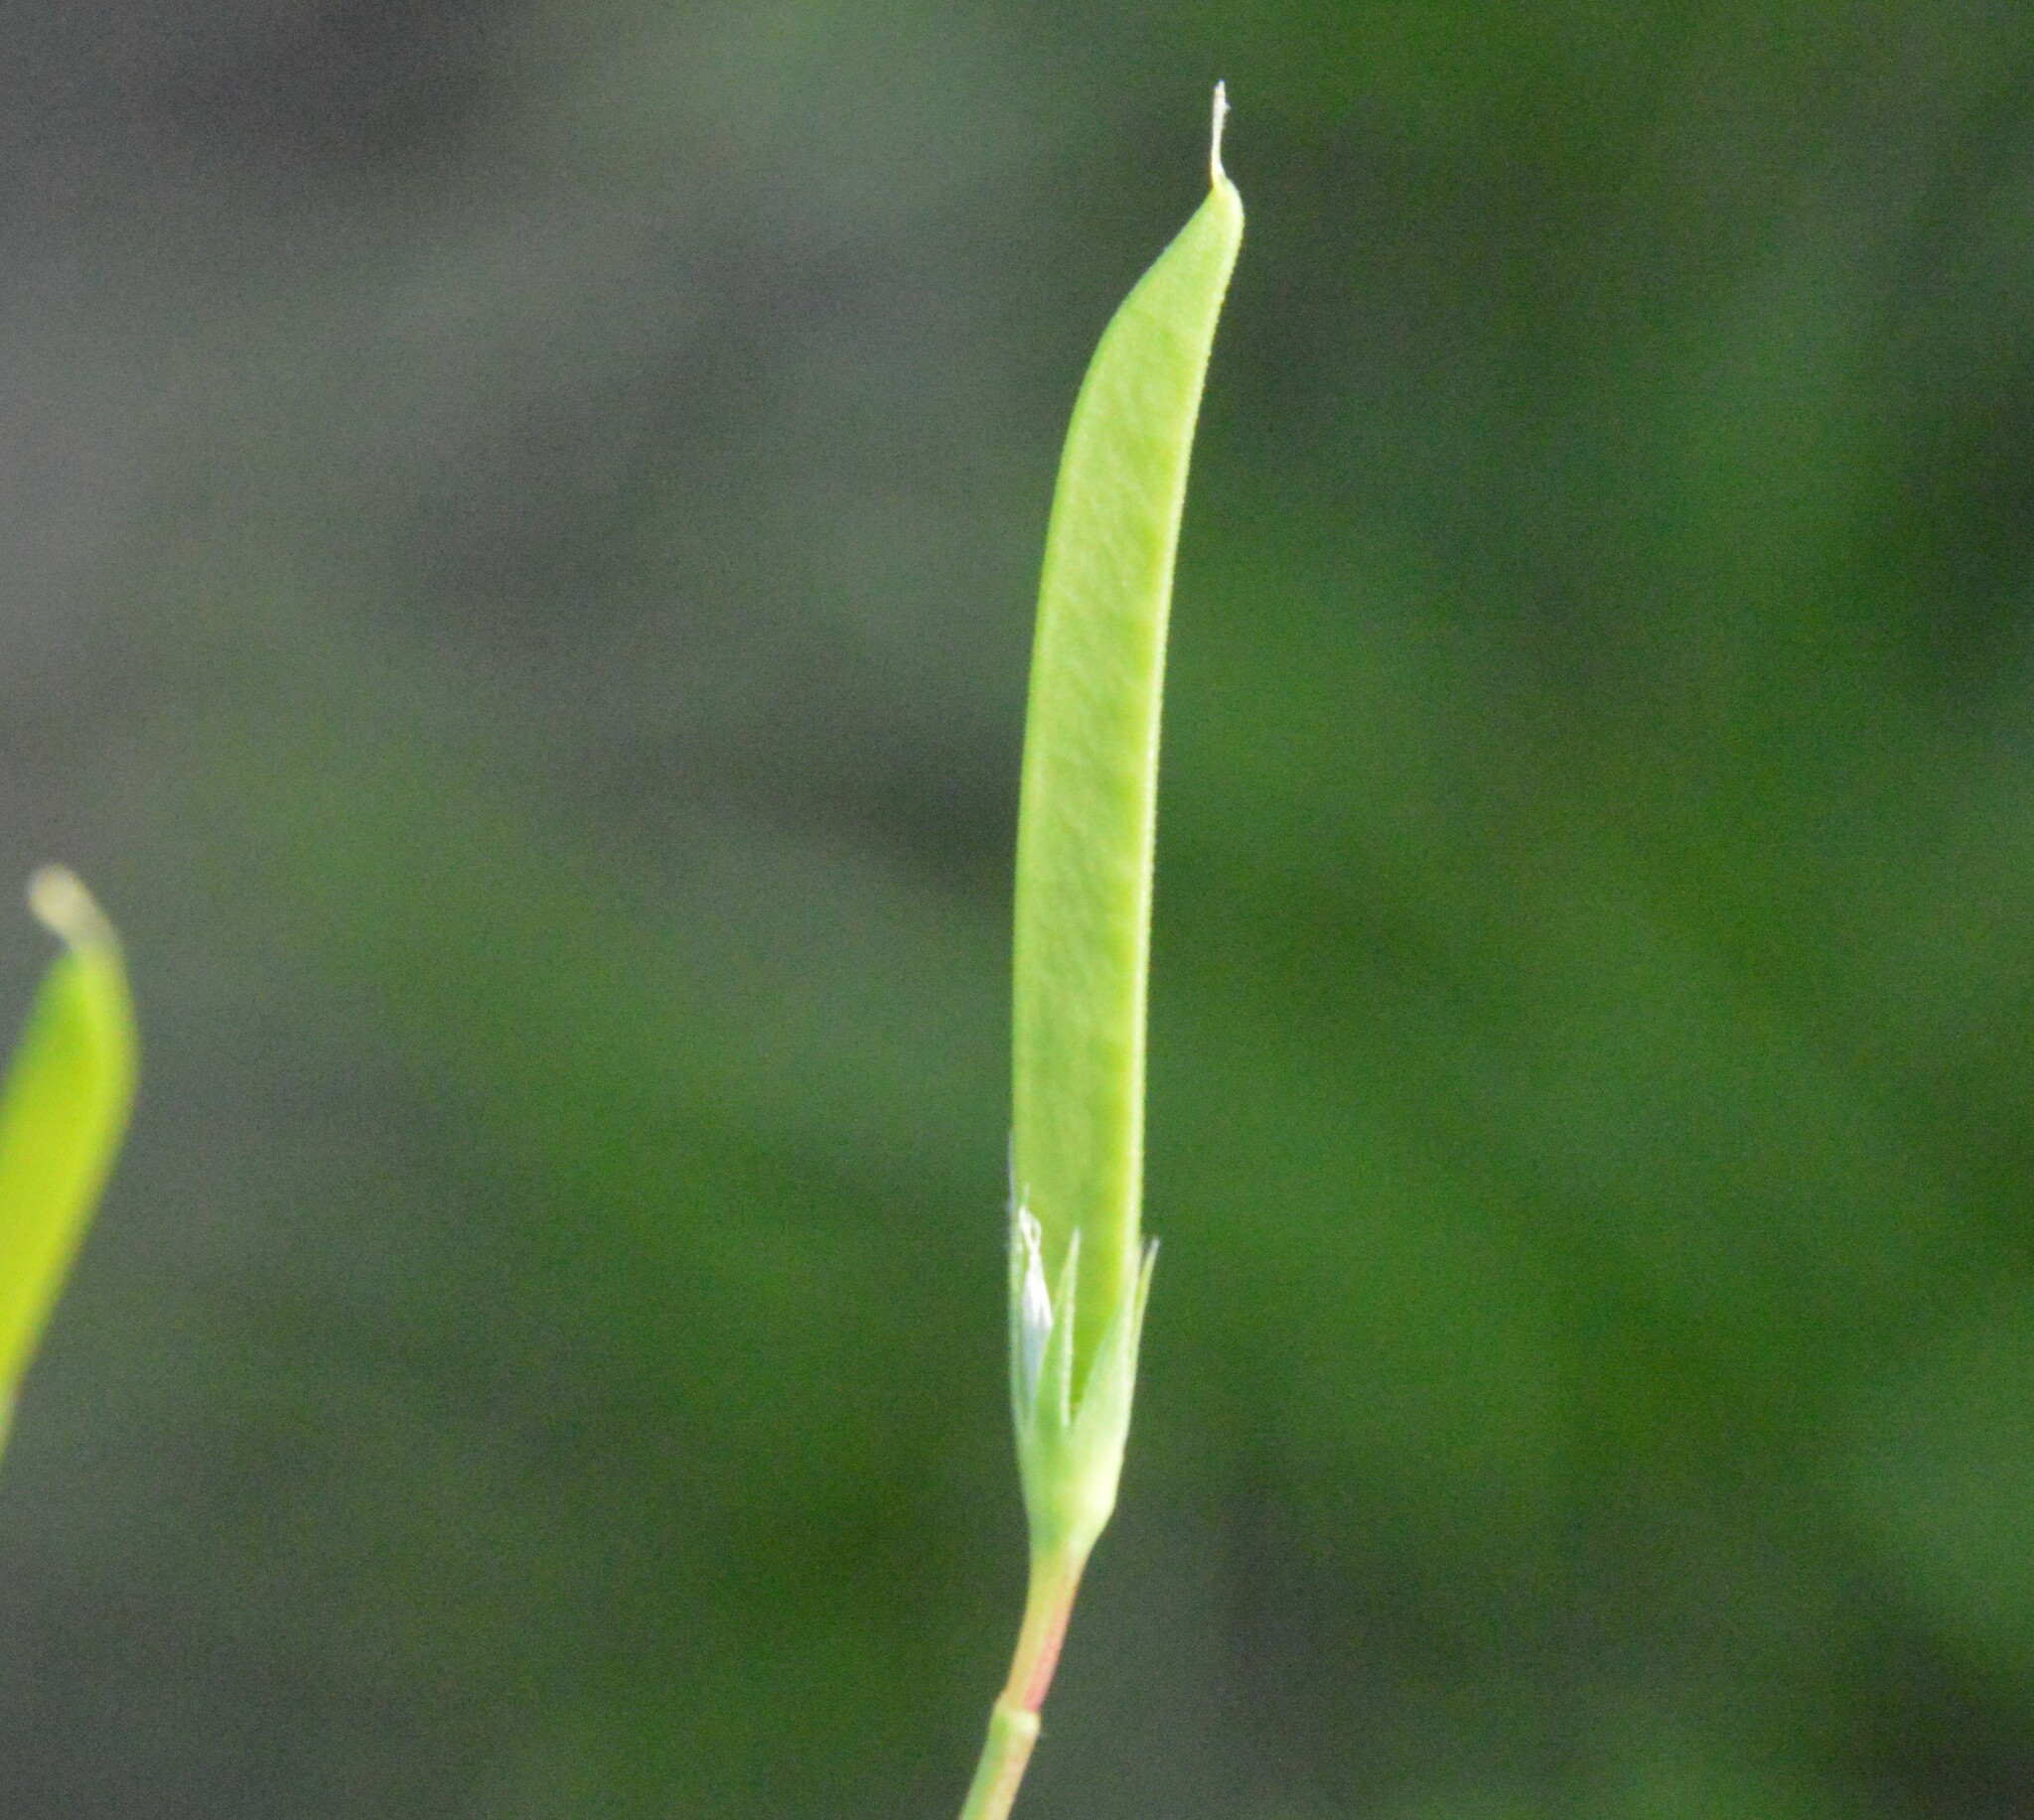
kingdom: Plantae
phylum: Tracheophyta
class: Magnoliopsida
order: Fabales
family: Fabaceae
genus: Lathyrus
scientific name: Lathyrus pusillus
